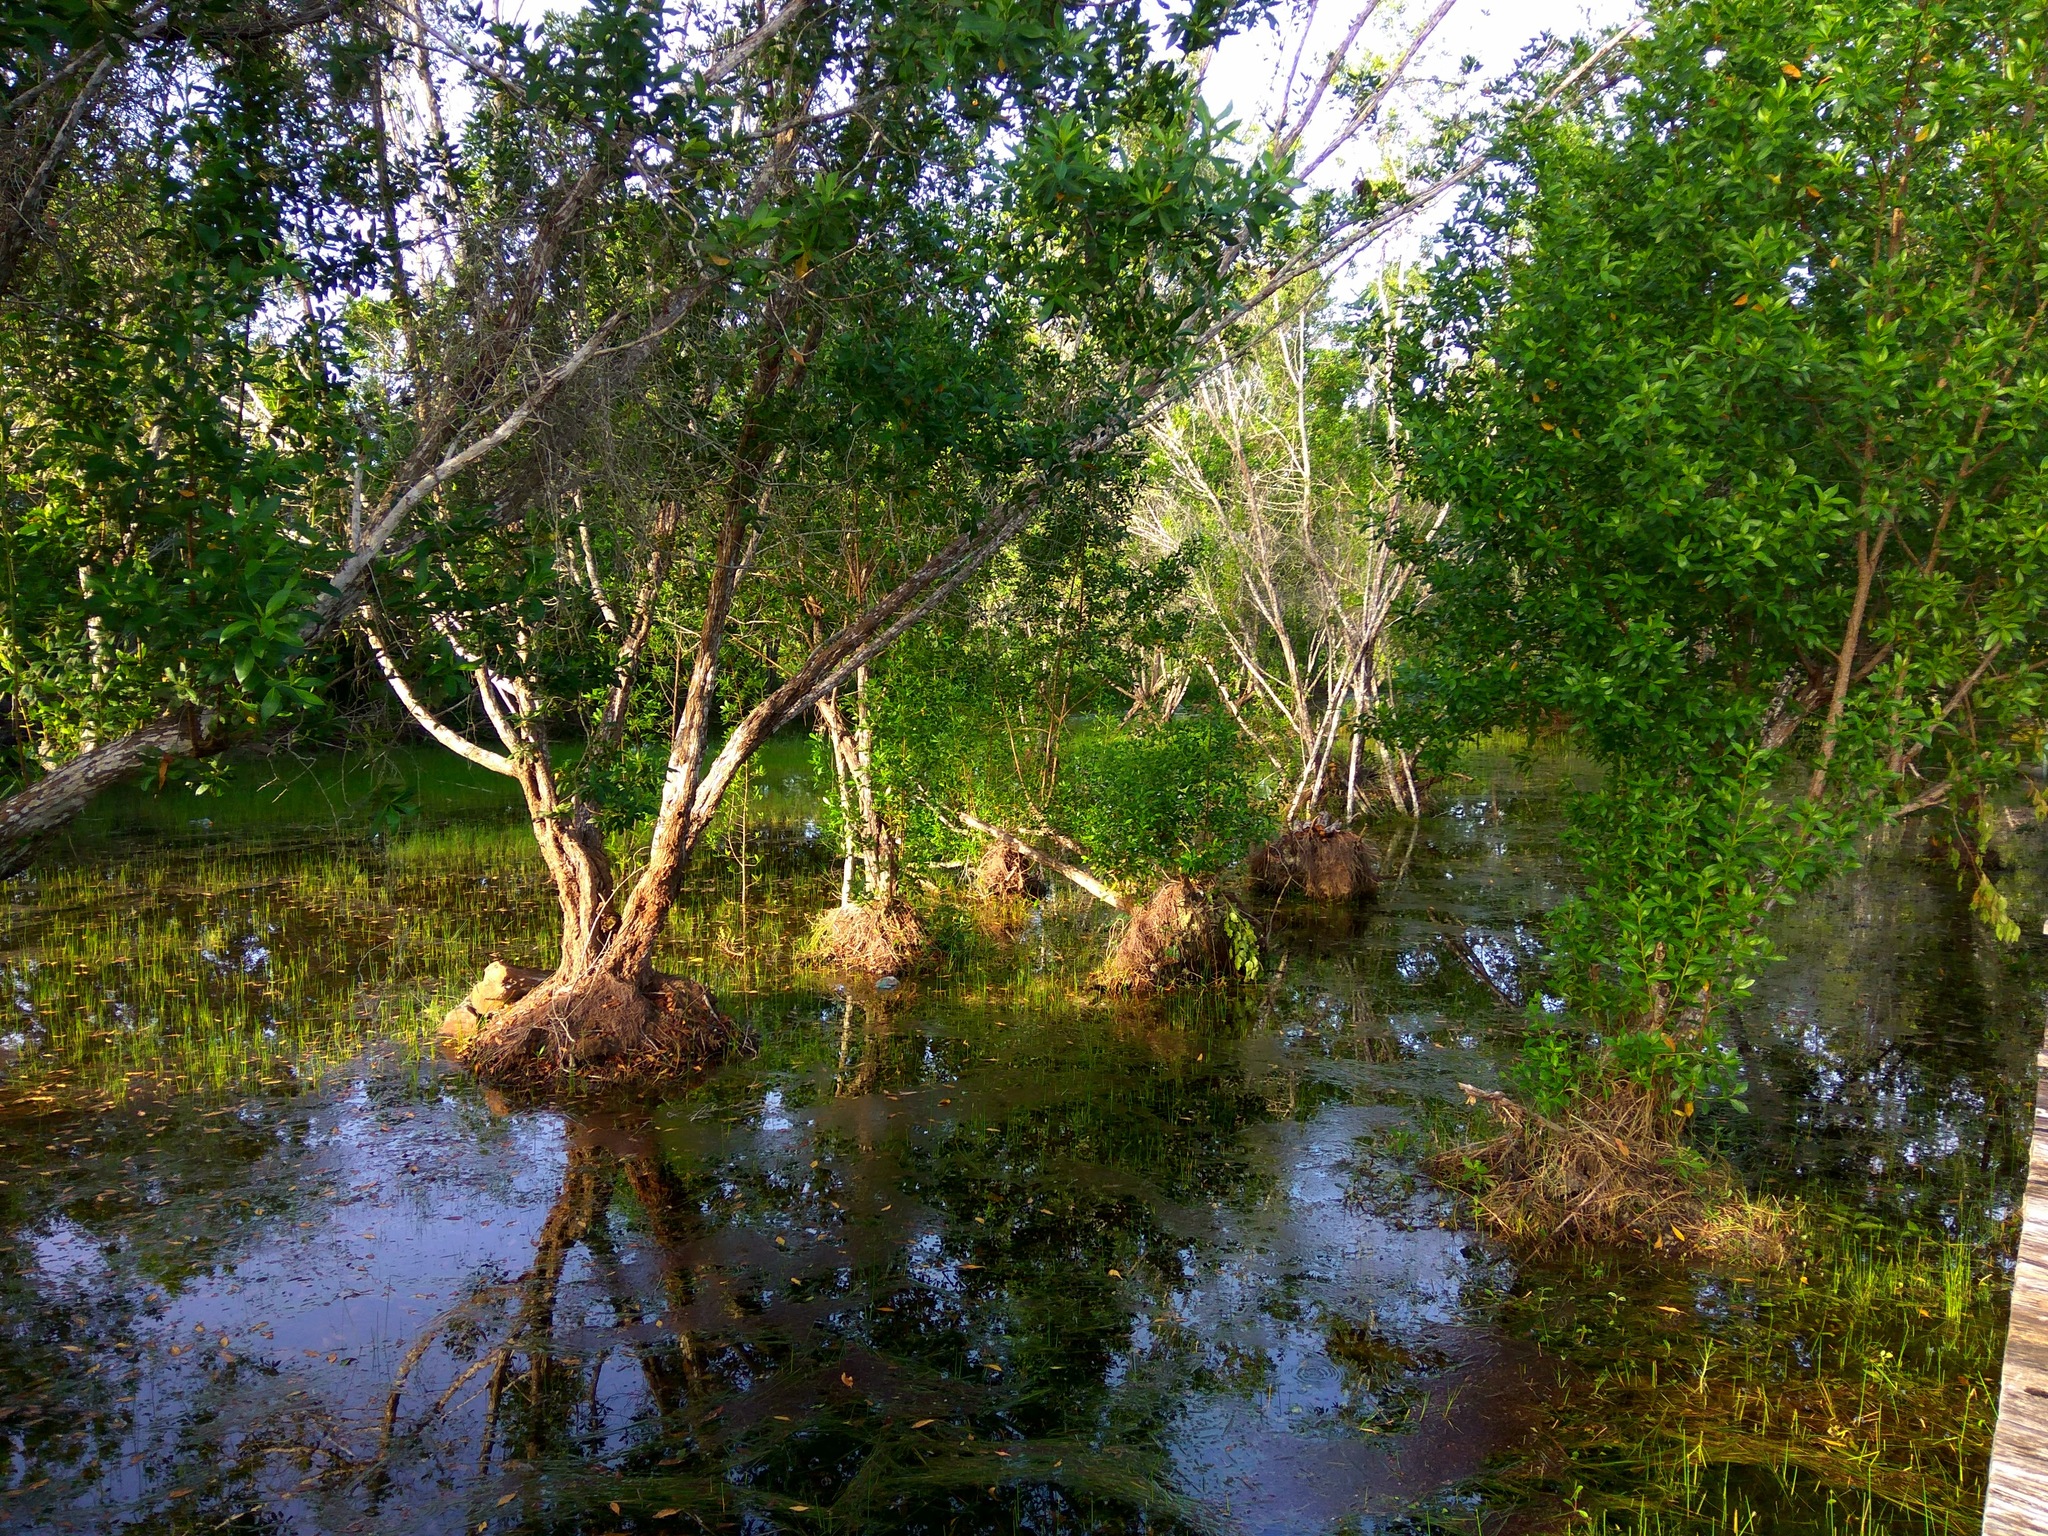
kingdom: Plantae
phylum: Tracheophyta
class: Magnoliopsida
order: Myrtales
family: Combretaceae
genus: Conocarpus
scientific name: Conocarpus erectus
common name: Button mangrove
